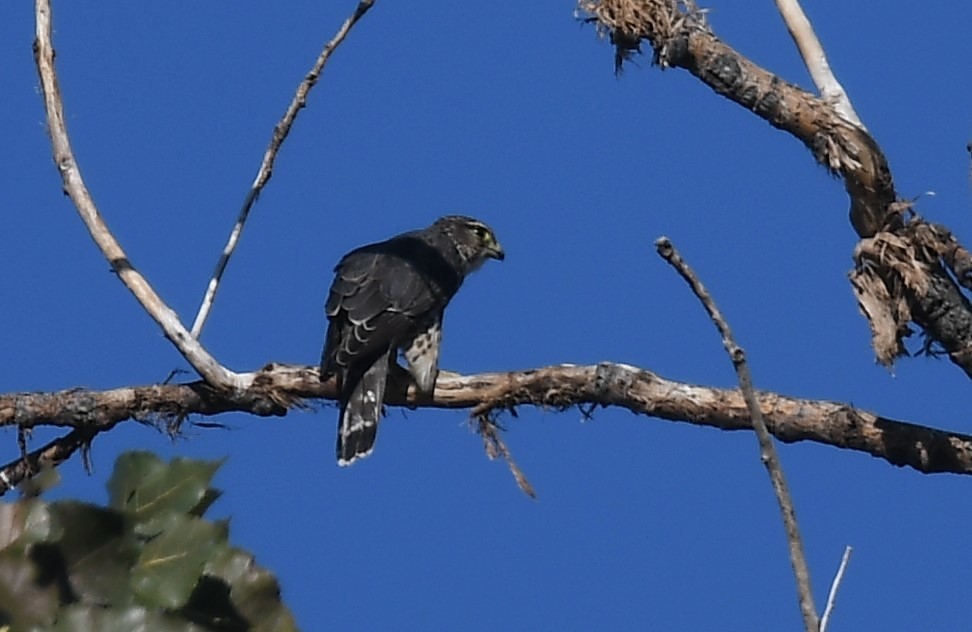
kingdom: Animalia
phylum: Chordata
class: Aves
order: Falconiformes
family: Falconidae
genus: Falco
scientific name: Falco columbarius
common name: Merlin
